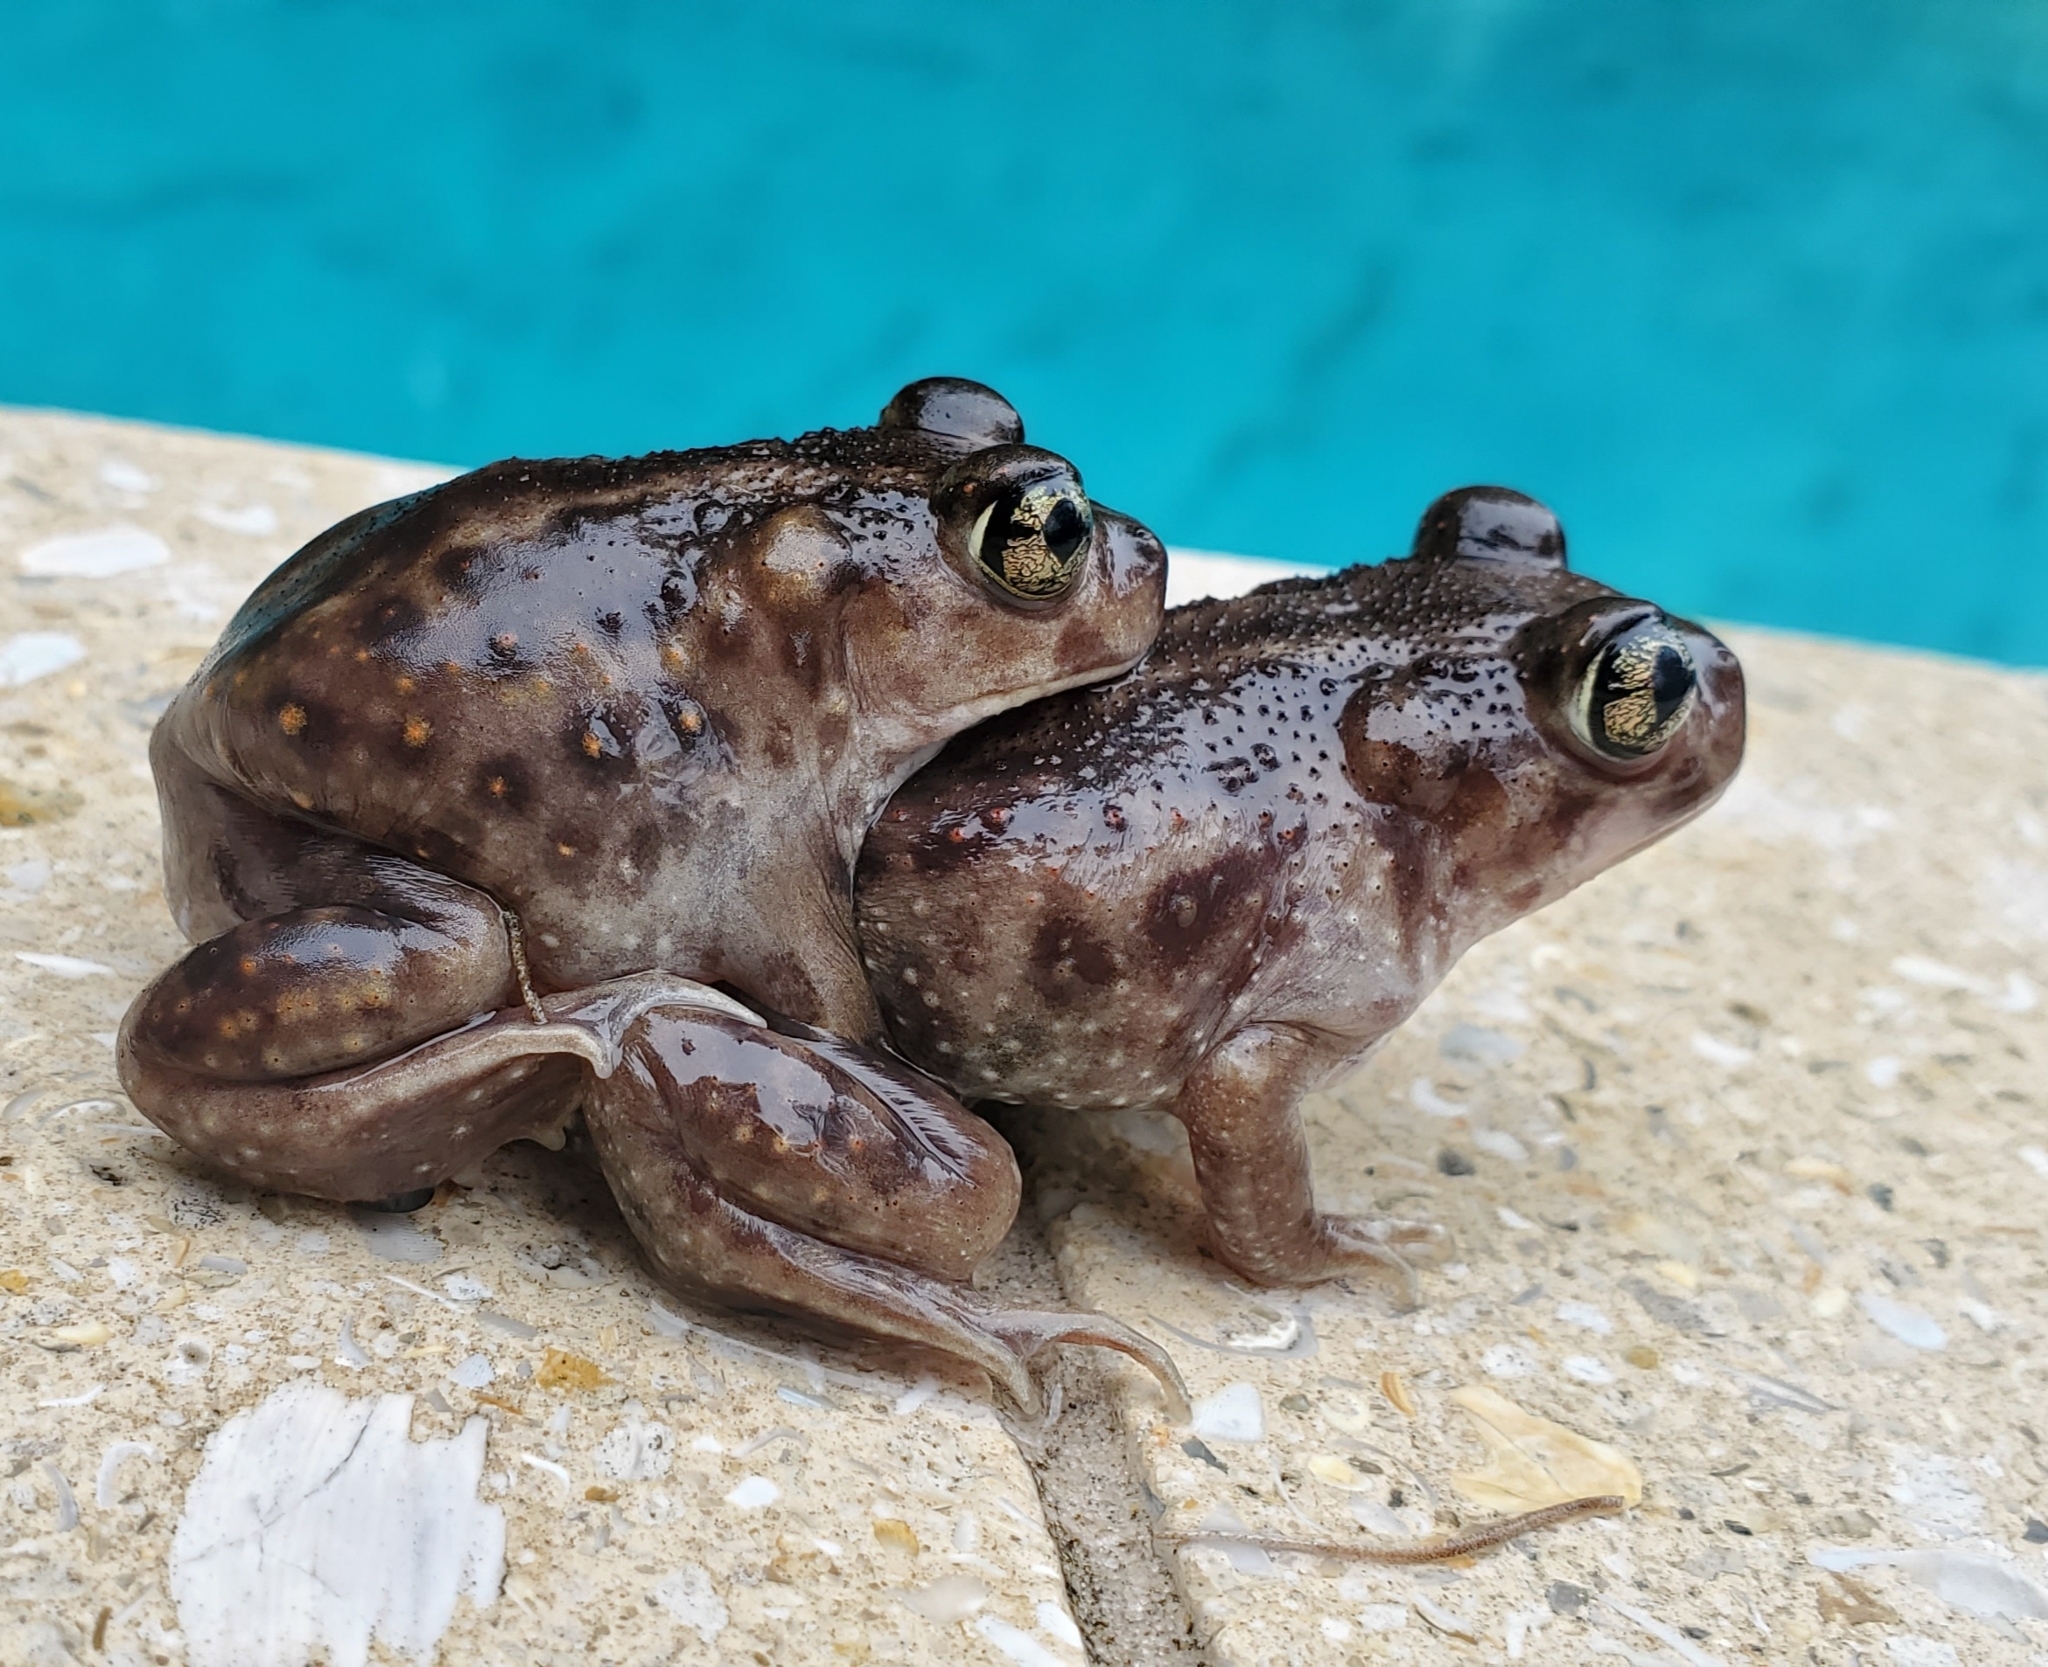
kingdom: Animalia
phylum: Chordata
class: Amphibia
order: Anura
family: Scaphiopodidae
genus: Scaphiopus
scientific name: Scaphiopus holbrookii
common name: Eastern spadefoot toad
